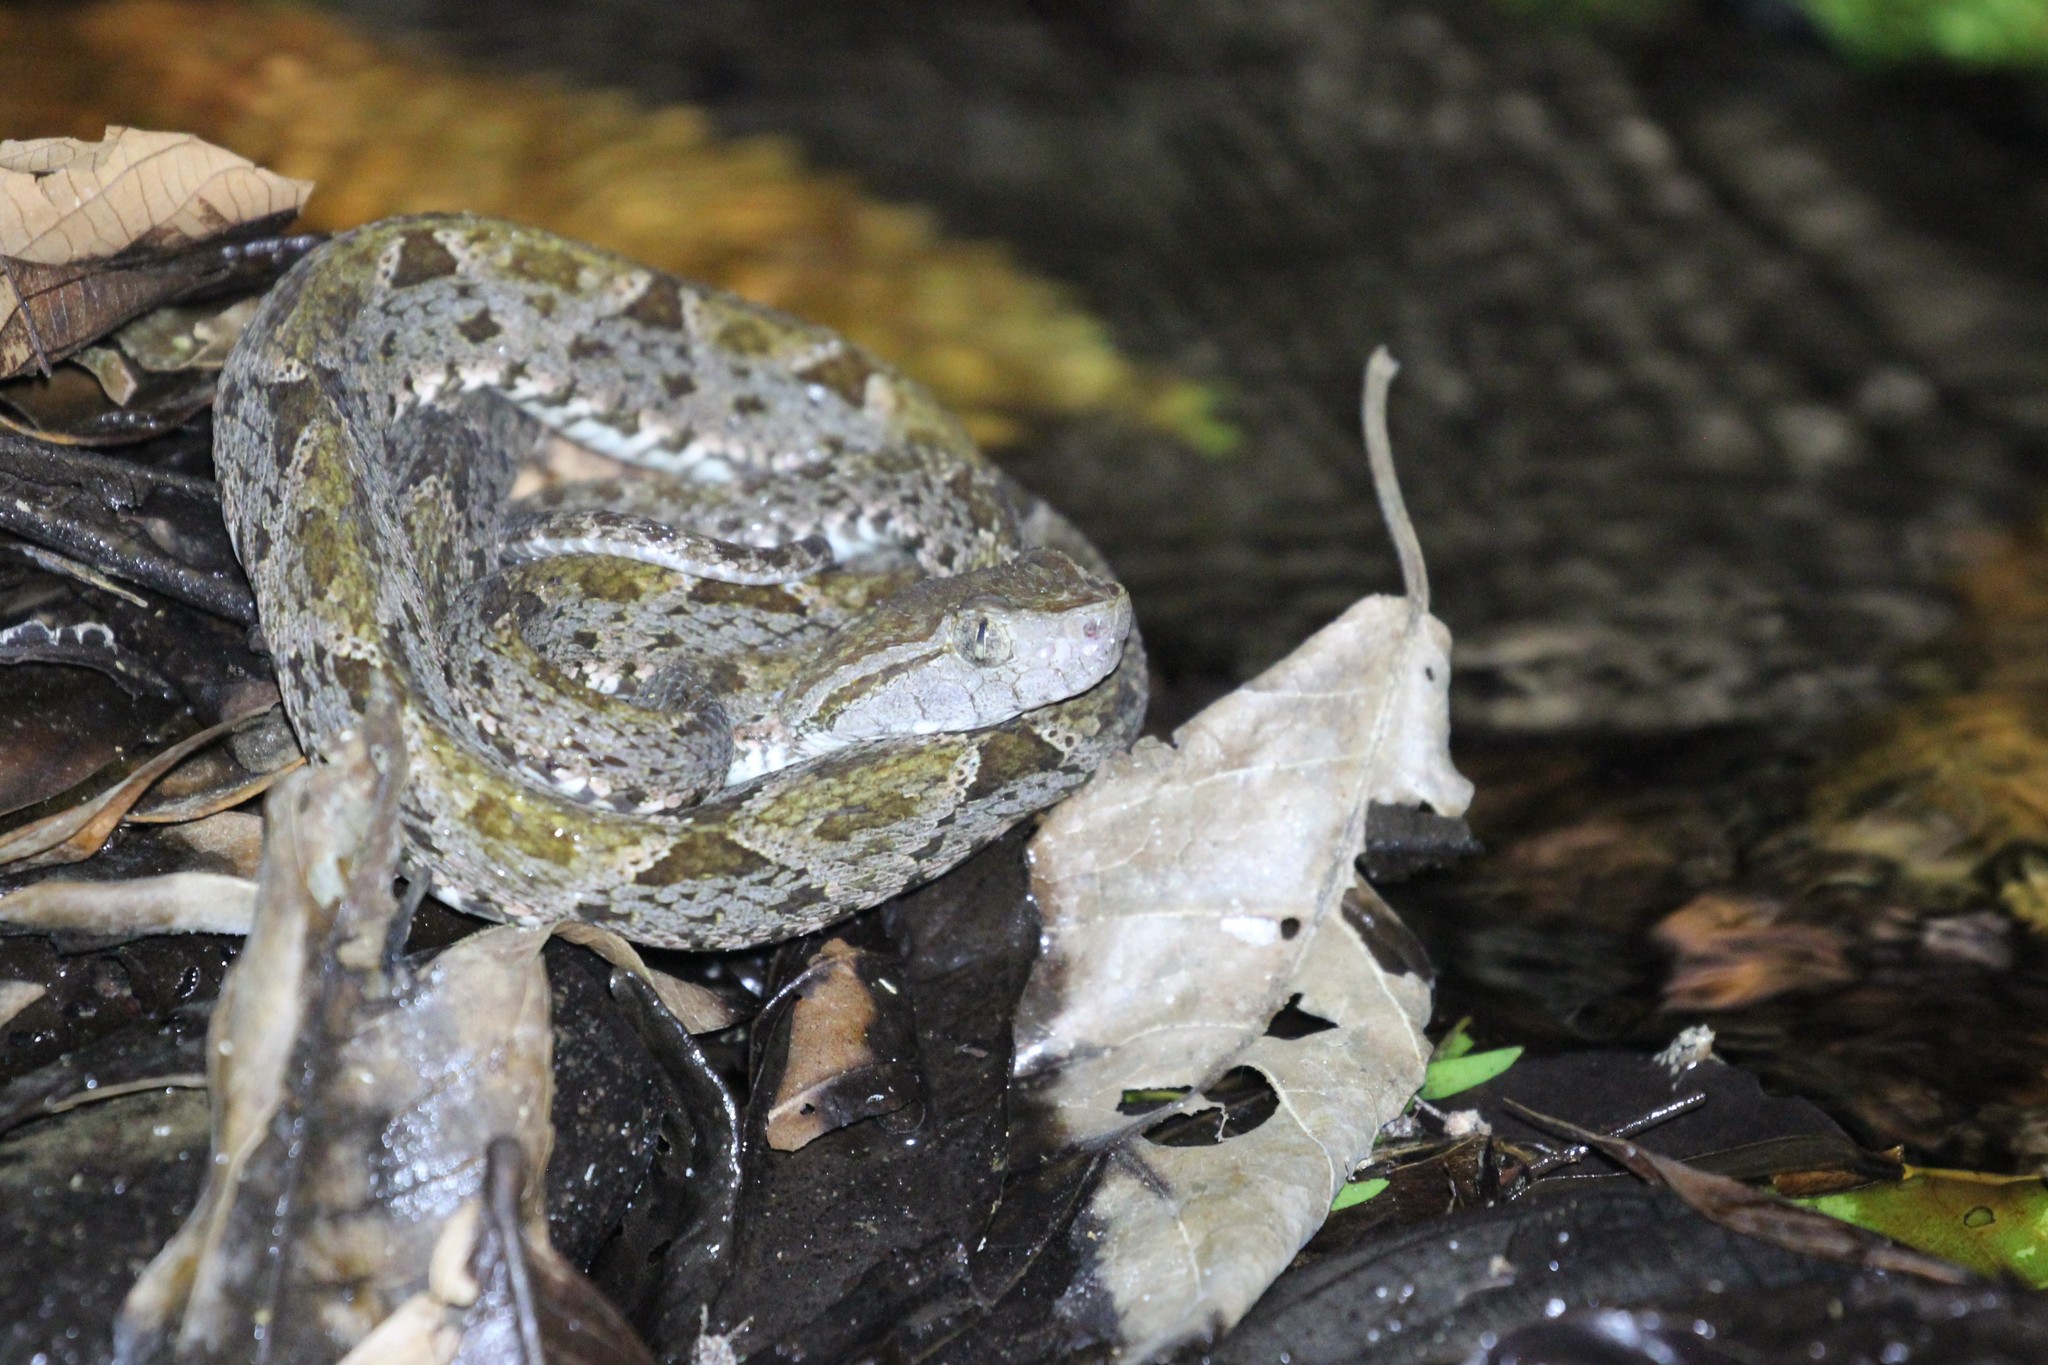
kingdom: Animalia
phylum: Chordata
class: Squamata
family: Viperidae
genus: Bothrops
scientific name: Bothrops asper
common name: Terciopelo
